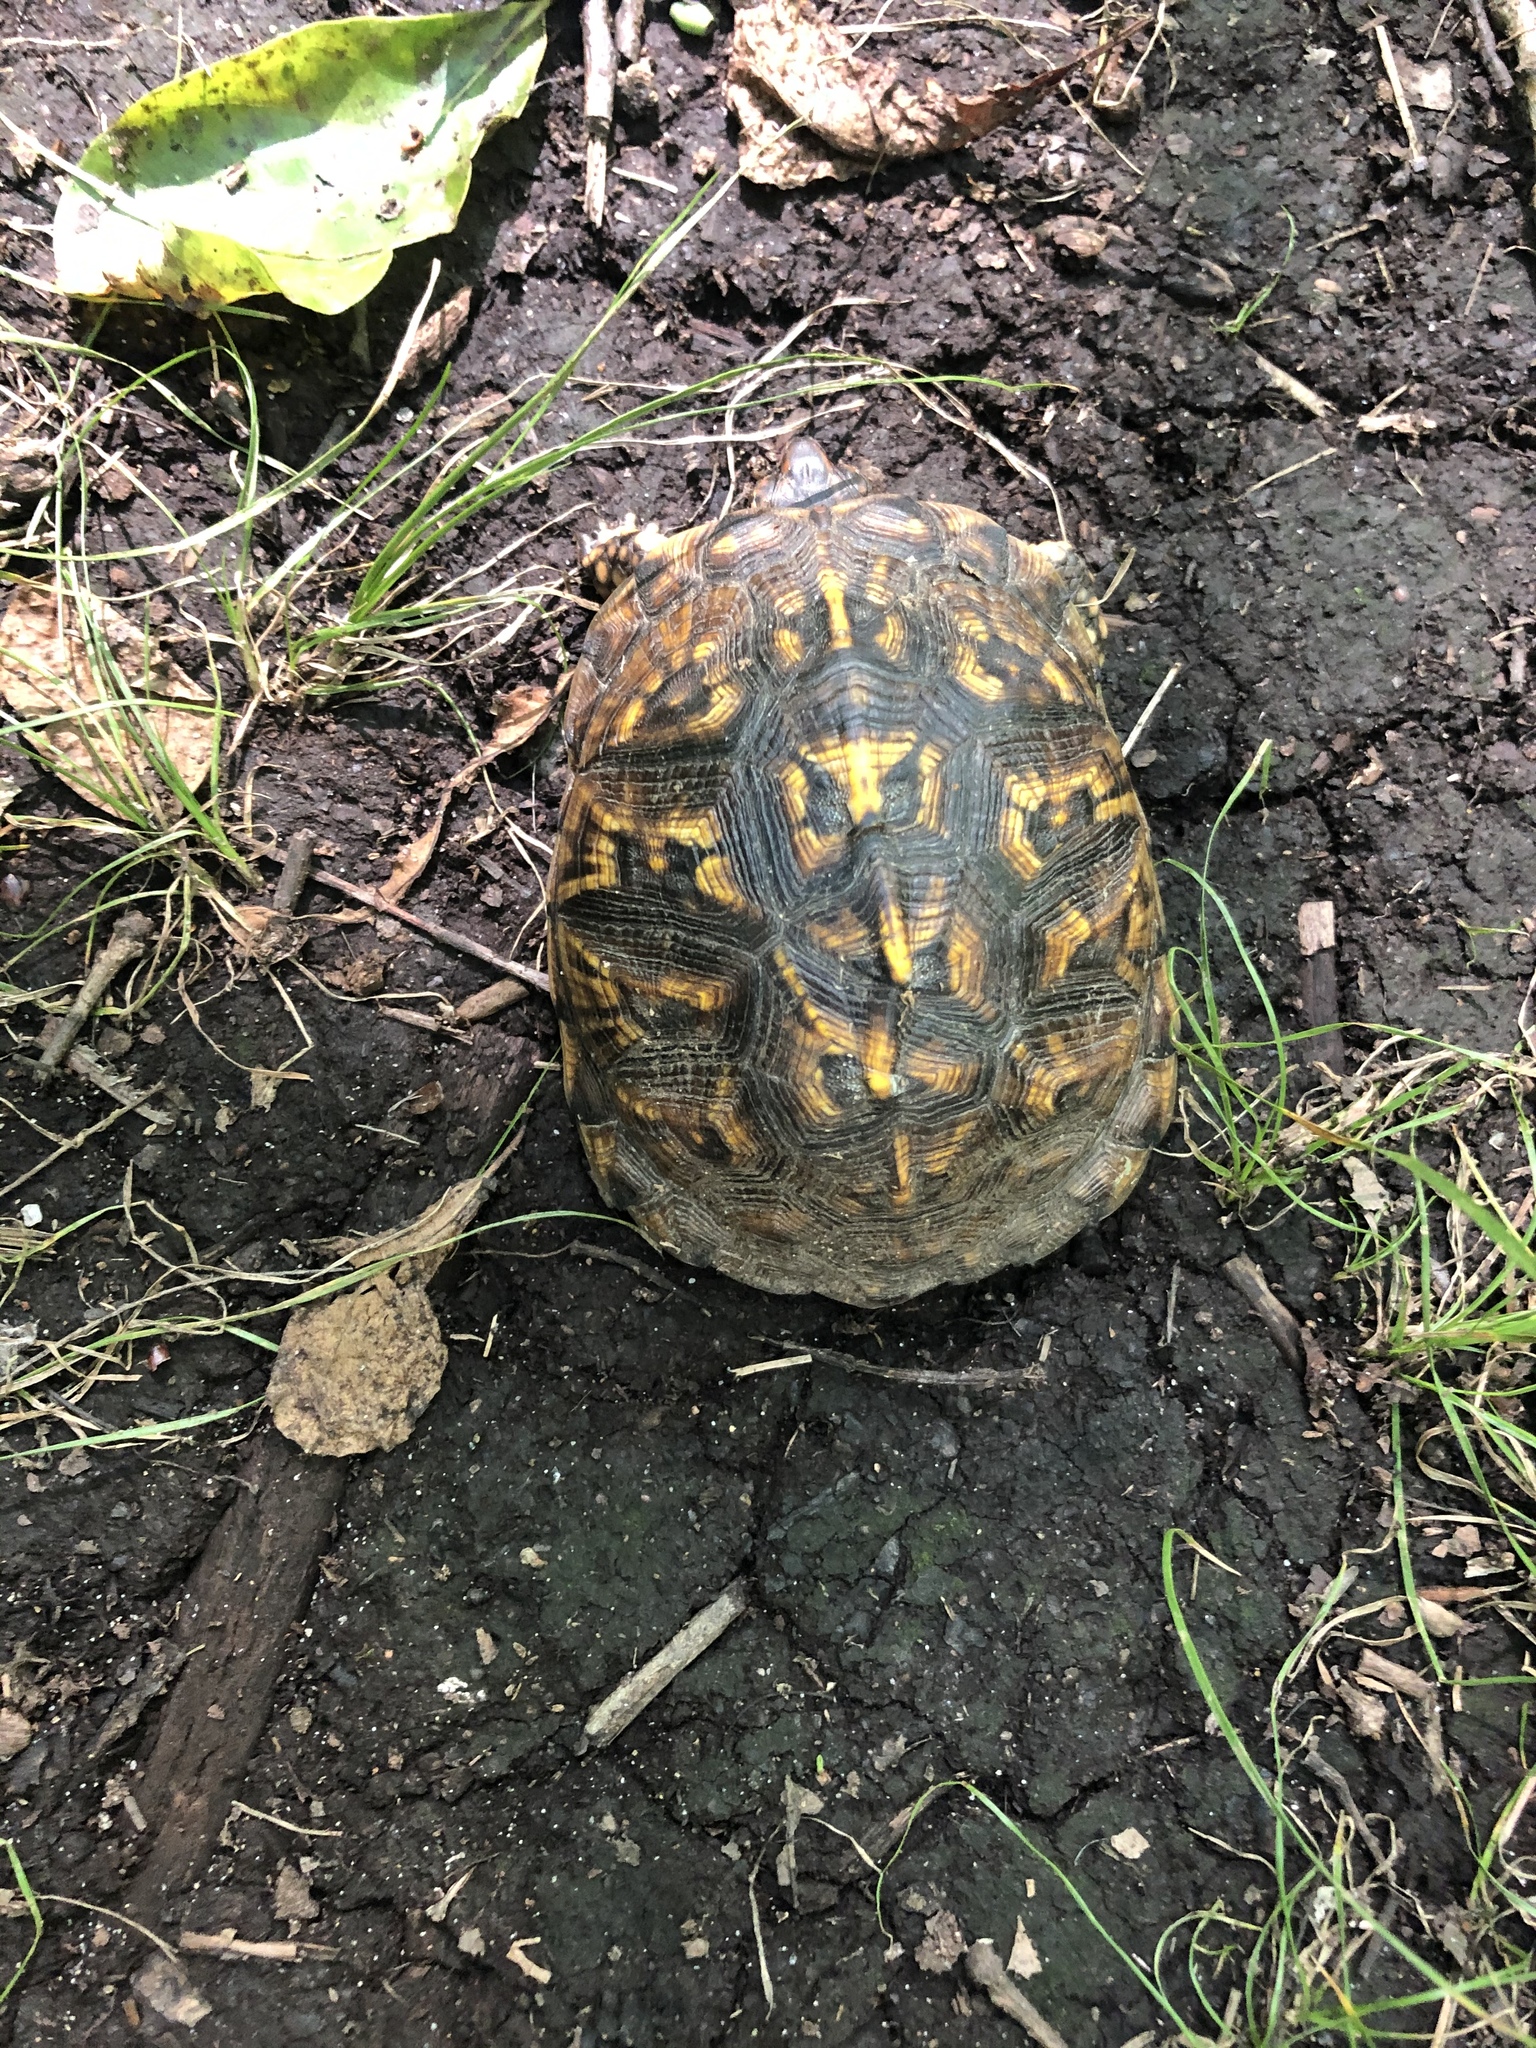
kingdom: Animalia
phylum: Chordata
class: Testudines
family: Emydidae
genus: Terrapene
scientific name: Terrapene carolina
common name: Common box turtle
